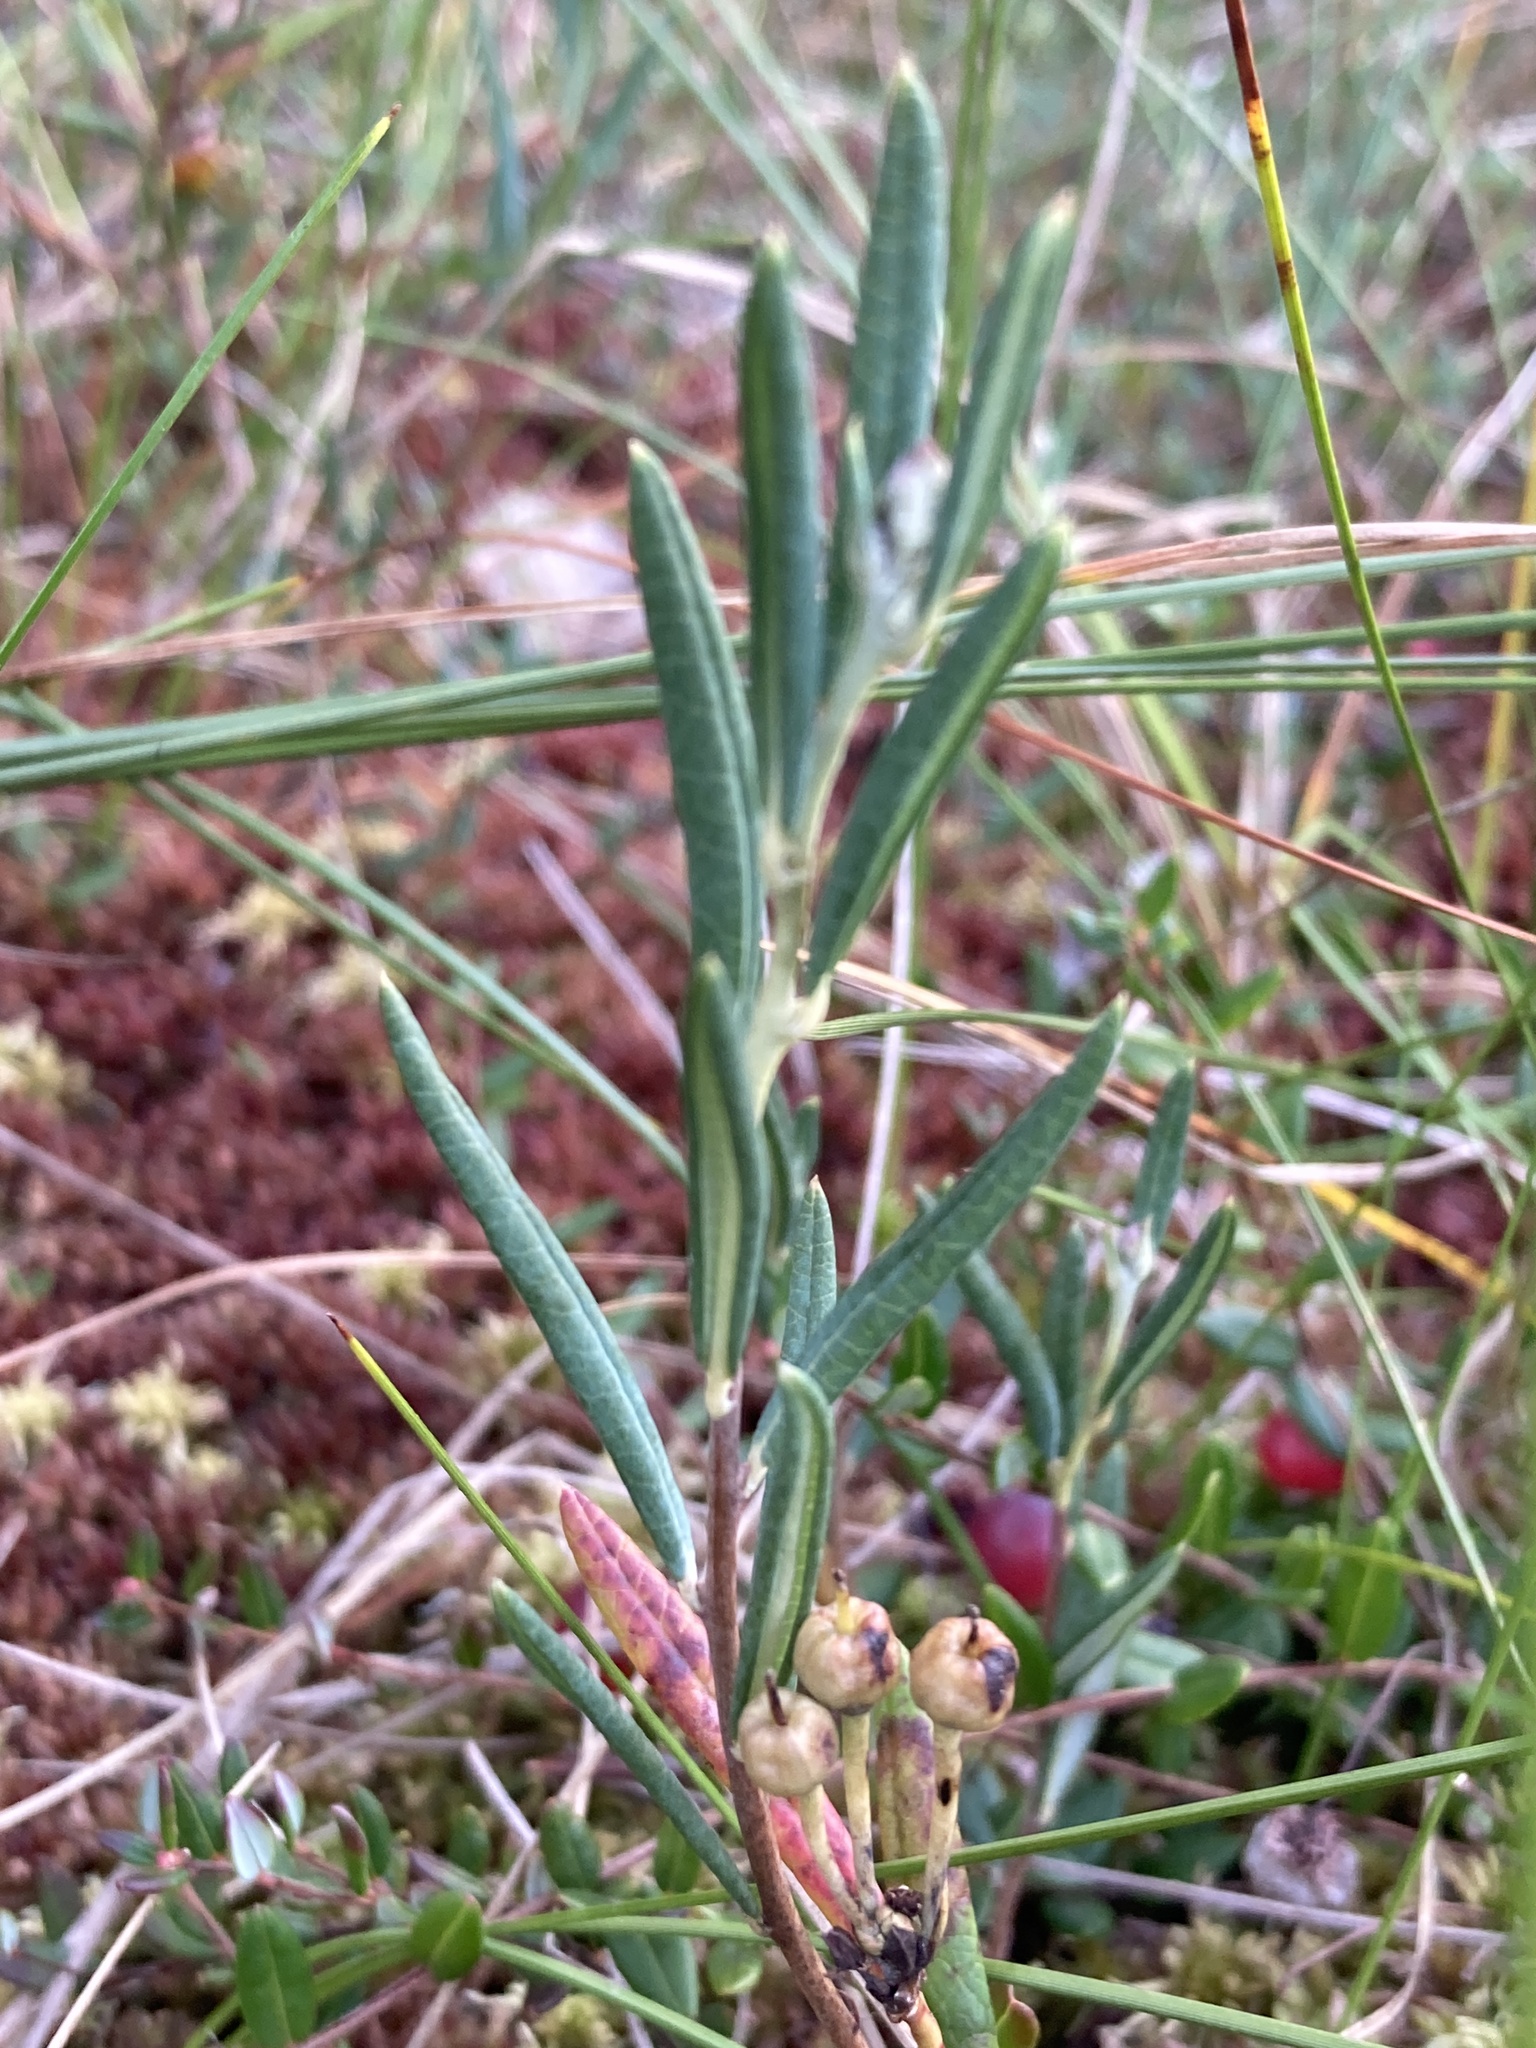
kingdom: Plantae
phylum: Tracheophyta
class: Magnoliopsida
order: Ericales
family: Ericaceae
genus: Andromeda
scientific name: Andromeda polifolia
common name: Bog-rosemary
